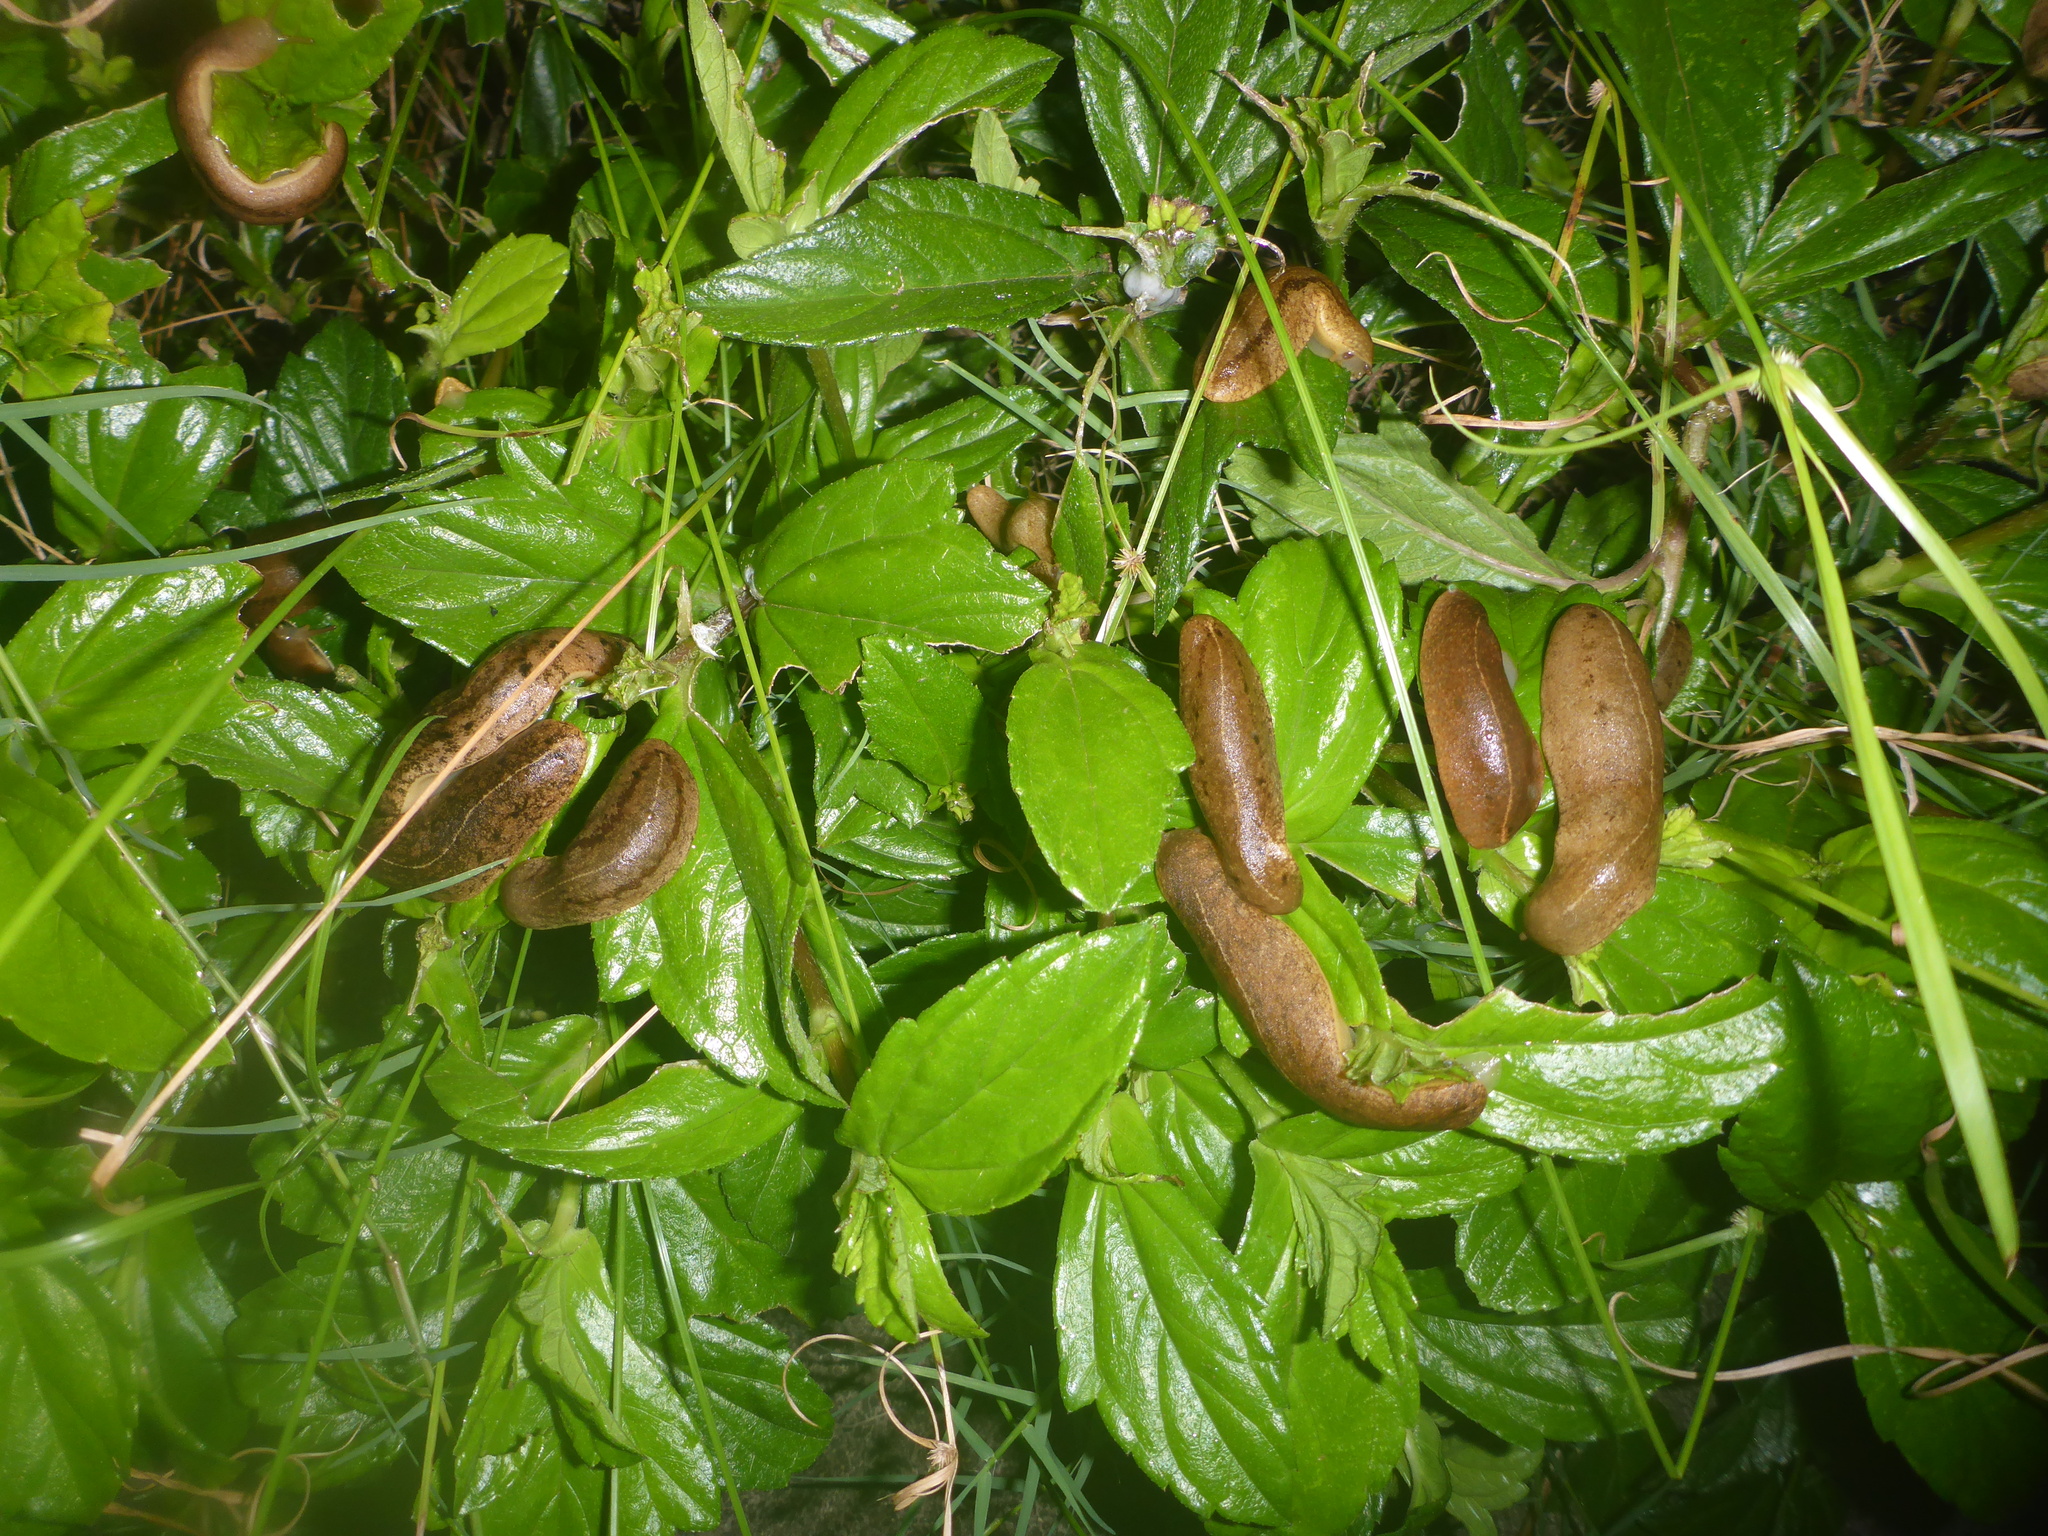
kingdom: Animalia
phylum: Mollusca
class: Gastropoda
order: Systellommatophora
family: Veronicellidae
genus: Veronicella
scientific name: Veronicella cubensis
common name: Two striped slug
